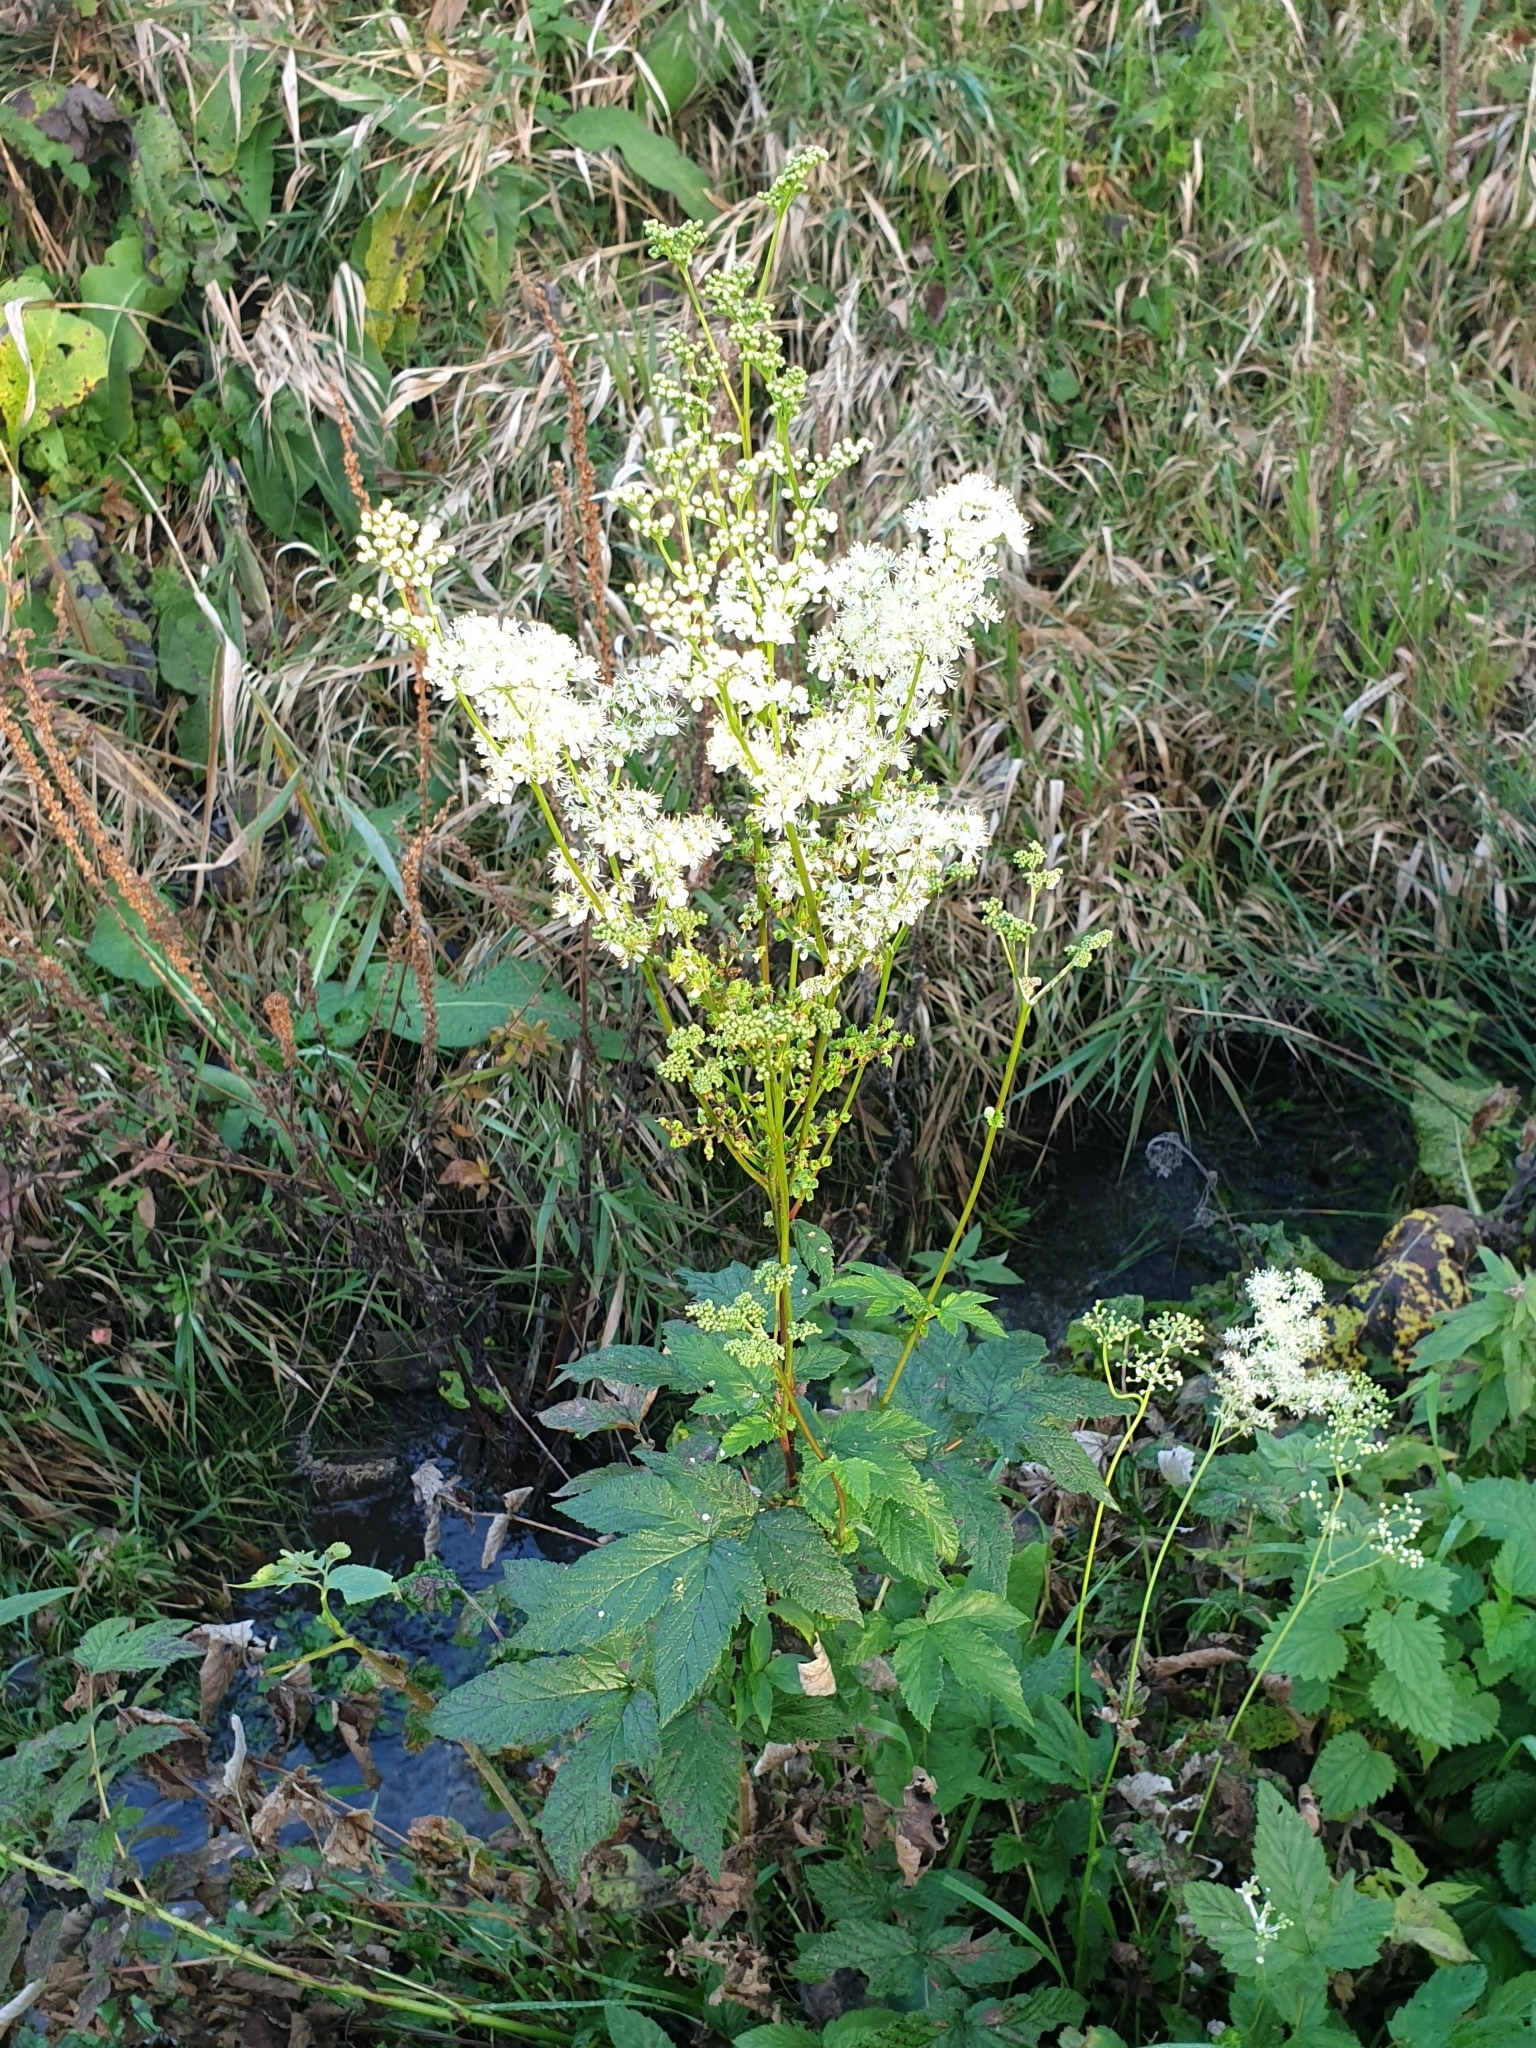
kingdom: Plantae
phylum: Tracheophyta
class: Magnoliopsida
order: Rosales
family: Rosaceae
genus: Filipendula
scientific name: Filipendula ulmaria
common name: Meadowsweet
